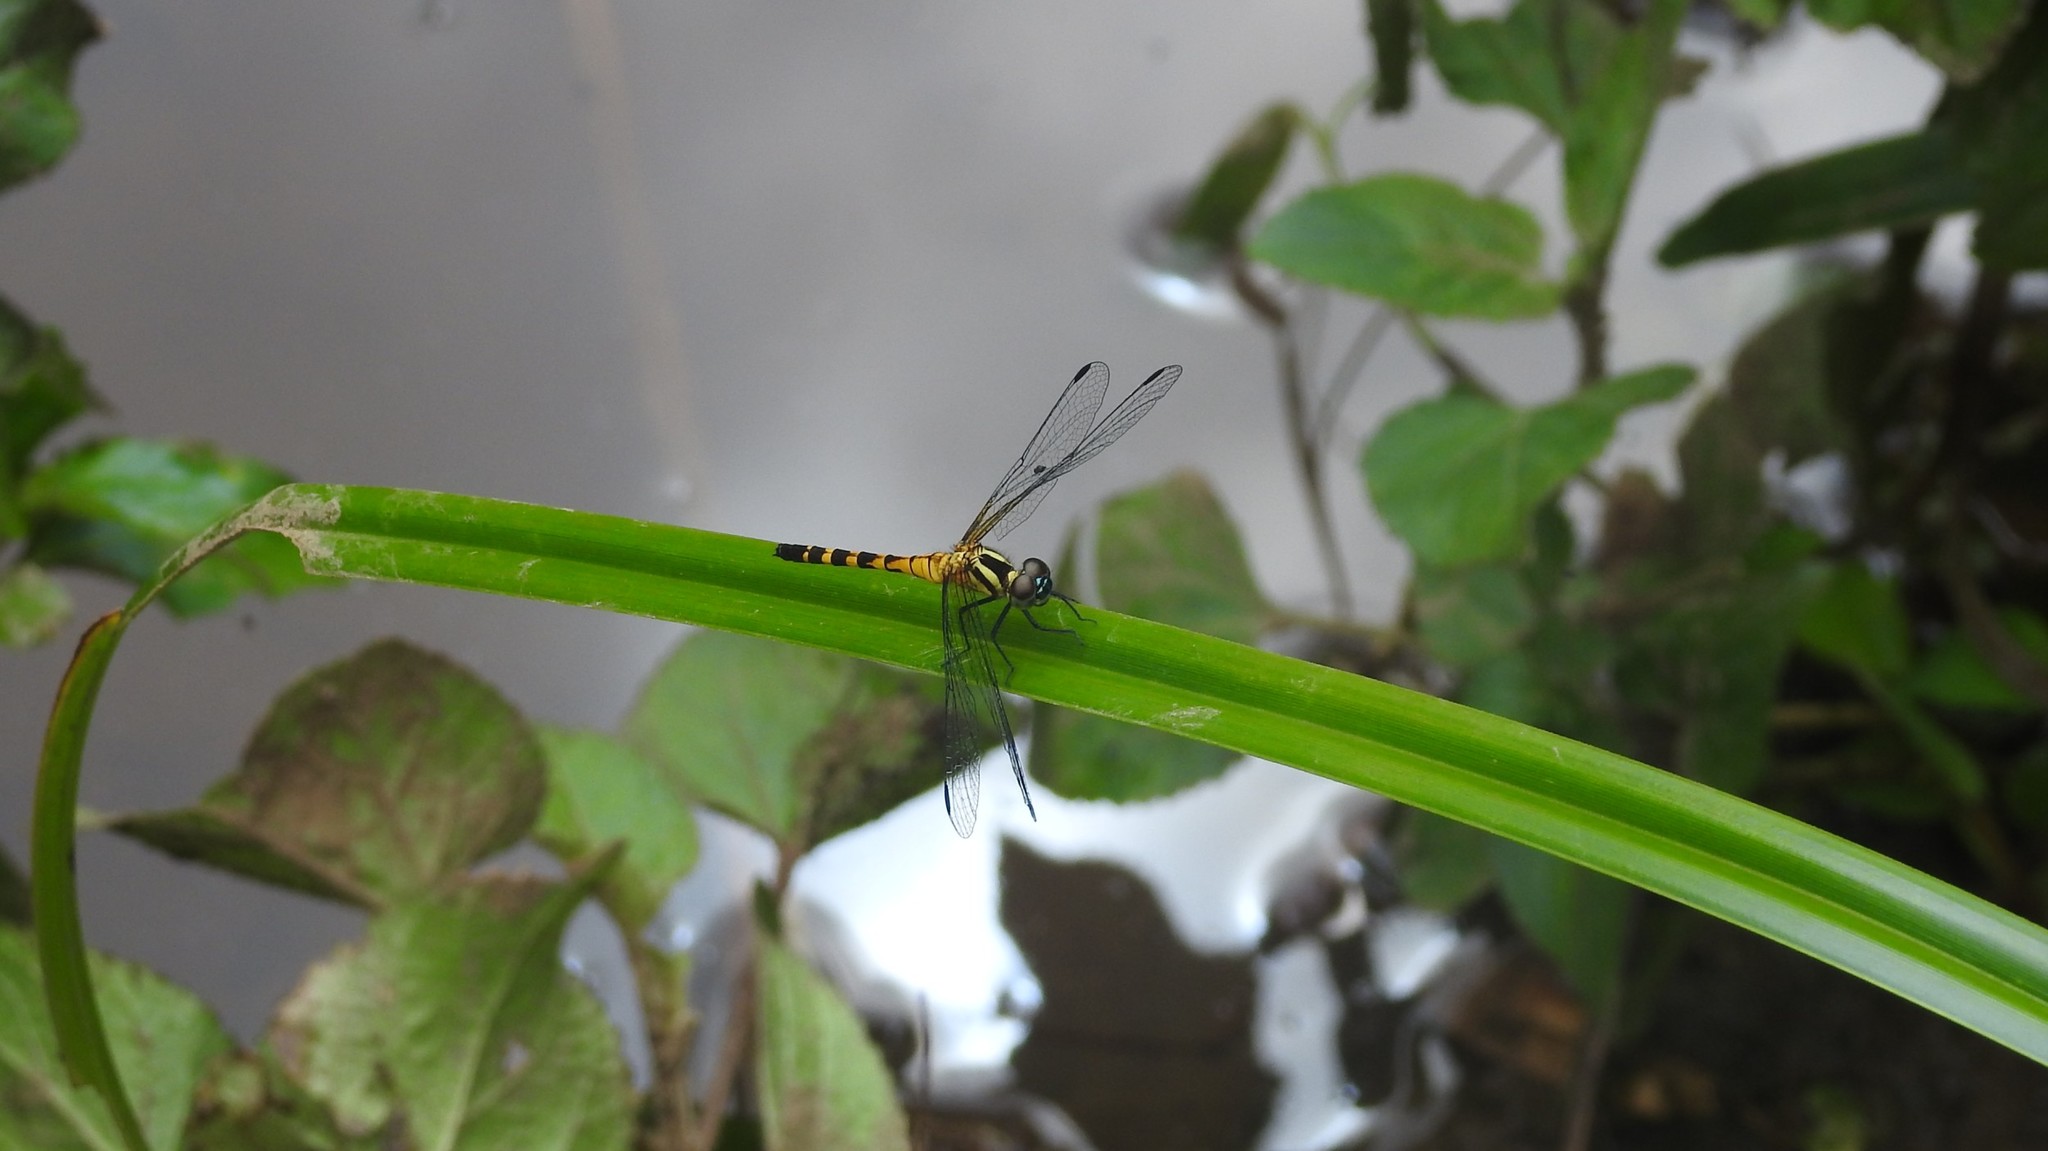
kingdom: Animalia
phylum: Arthropoda
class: Insecta
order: Odonata
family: Libellulidae
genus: Epithemis
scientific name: Epithemis mariae
